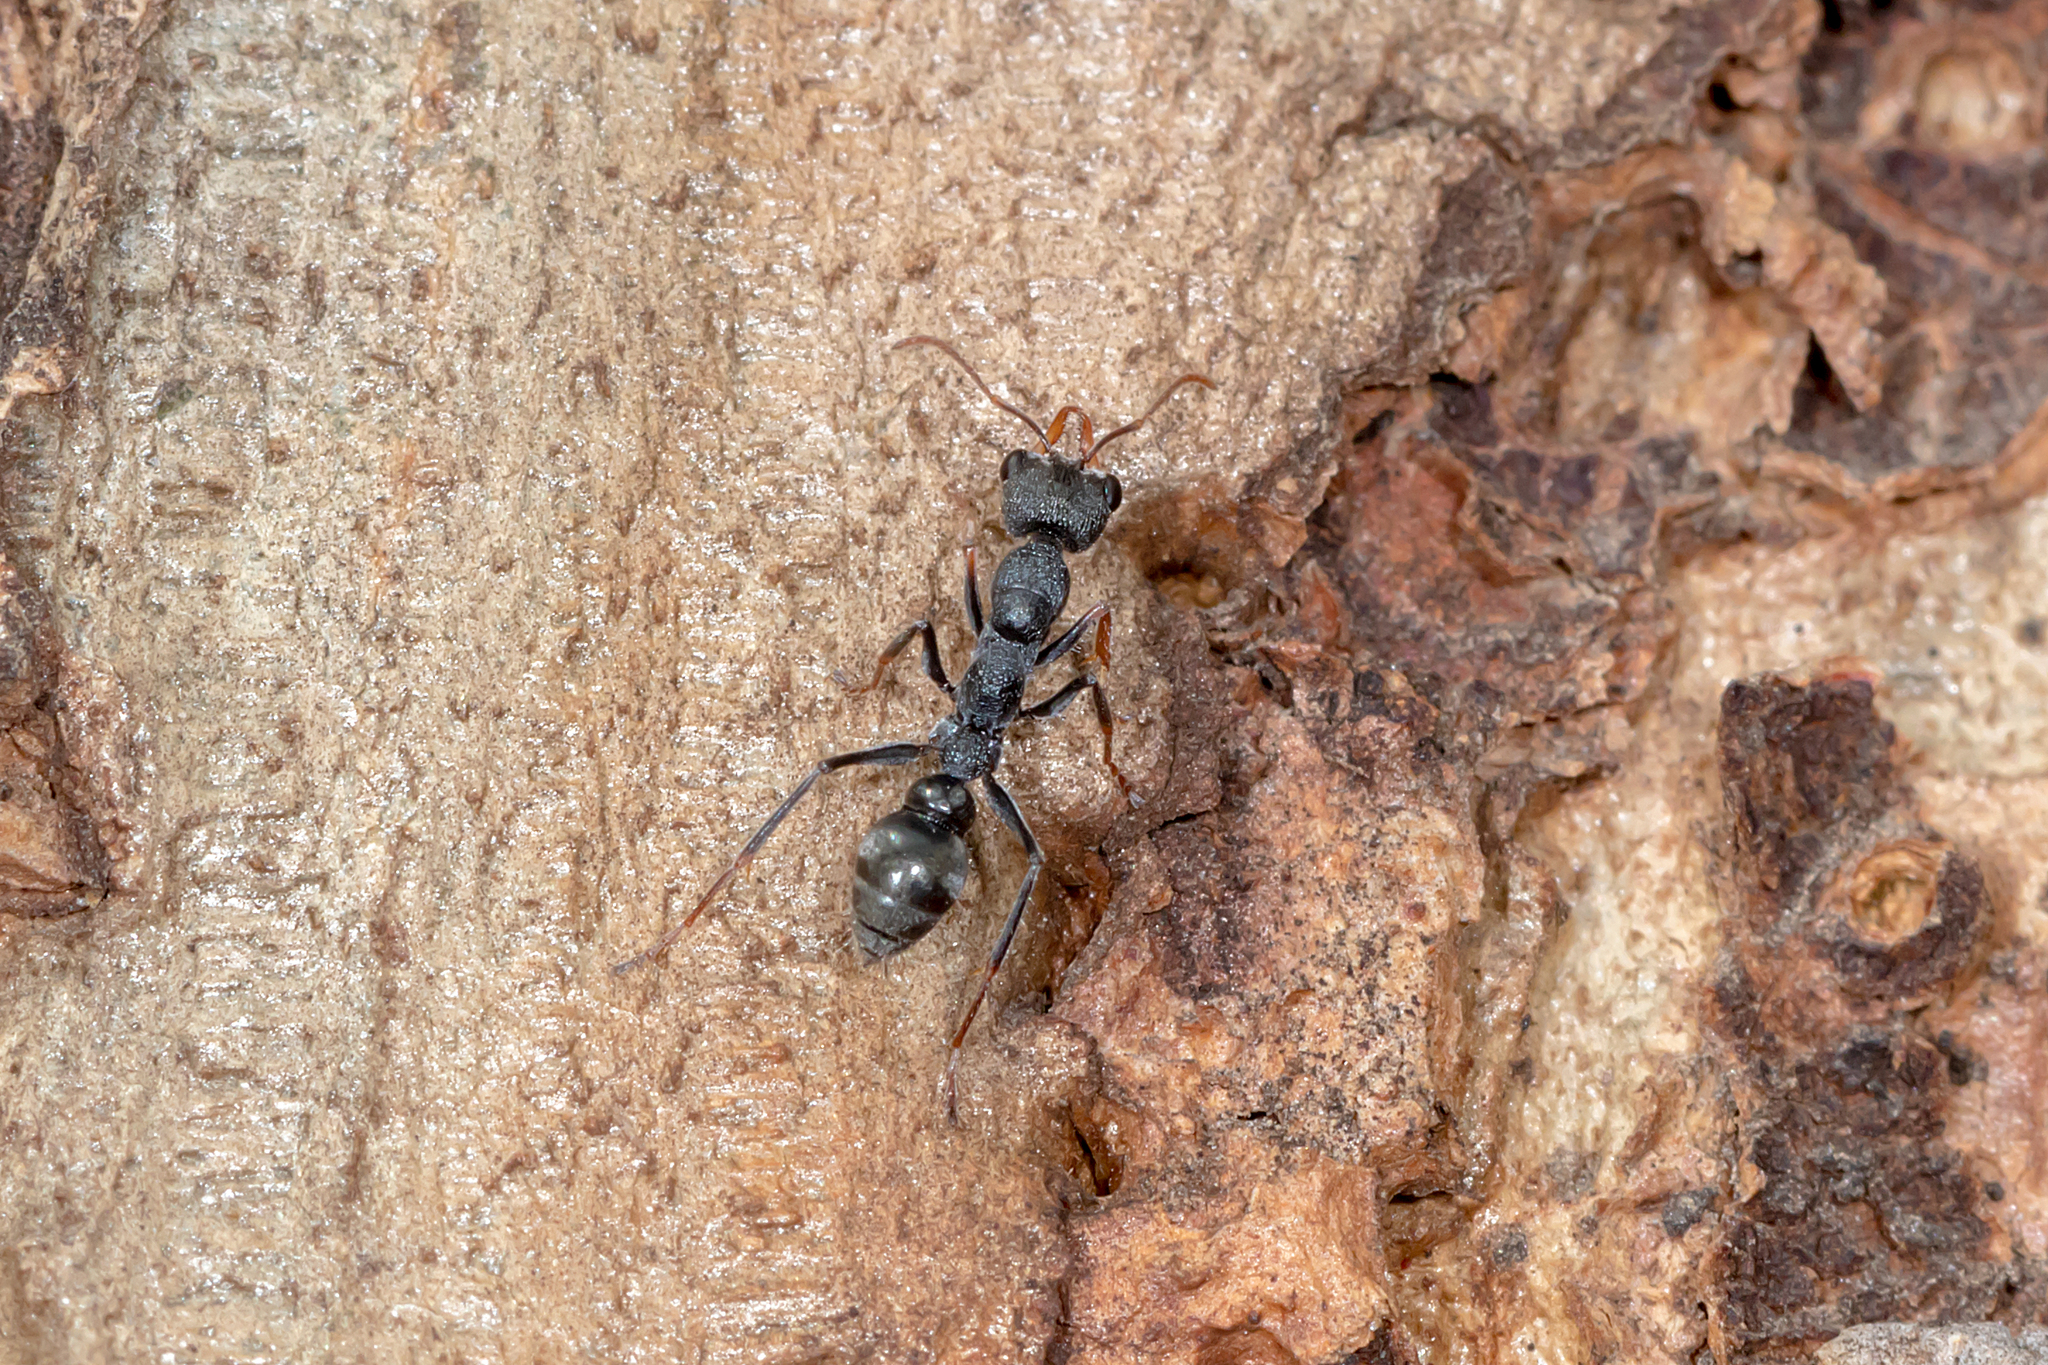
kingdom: Animalia
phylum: Arthropoda
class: Insecta
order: Hymenoptera
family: Formicidae
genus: Myrmecia
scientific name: Myrmecia urens
